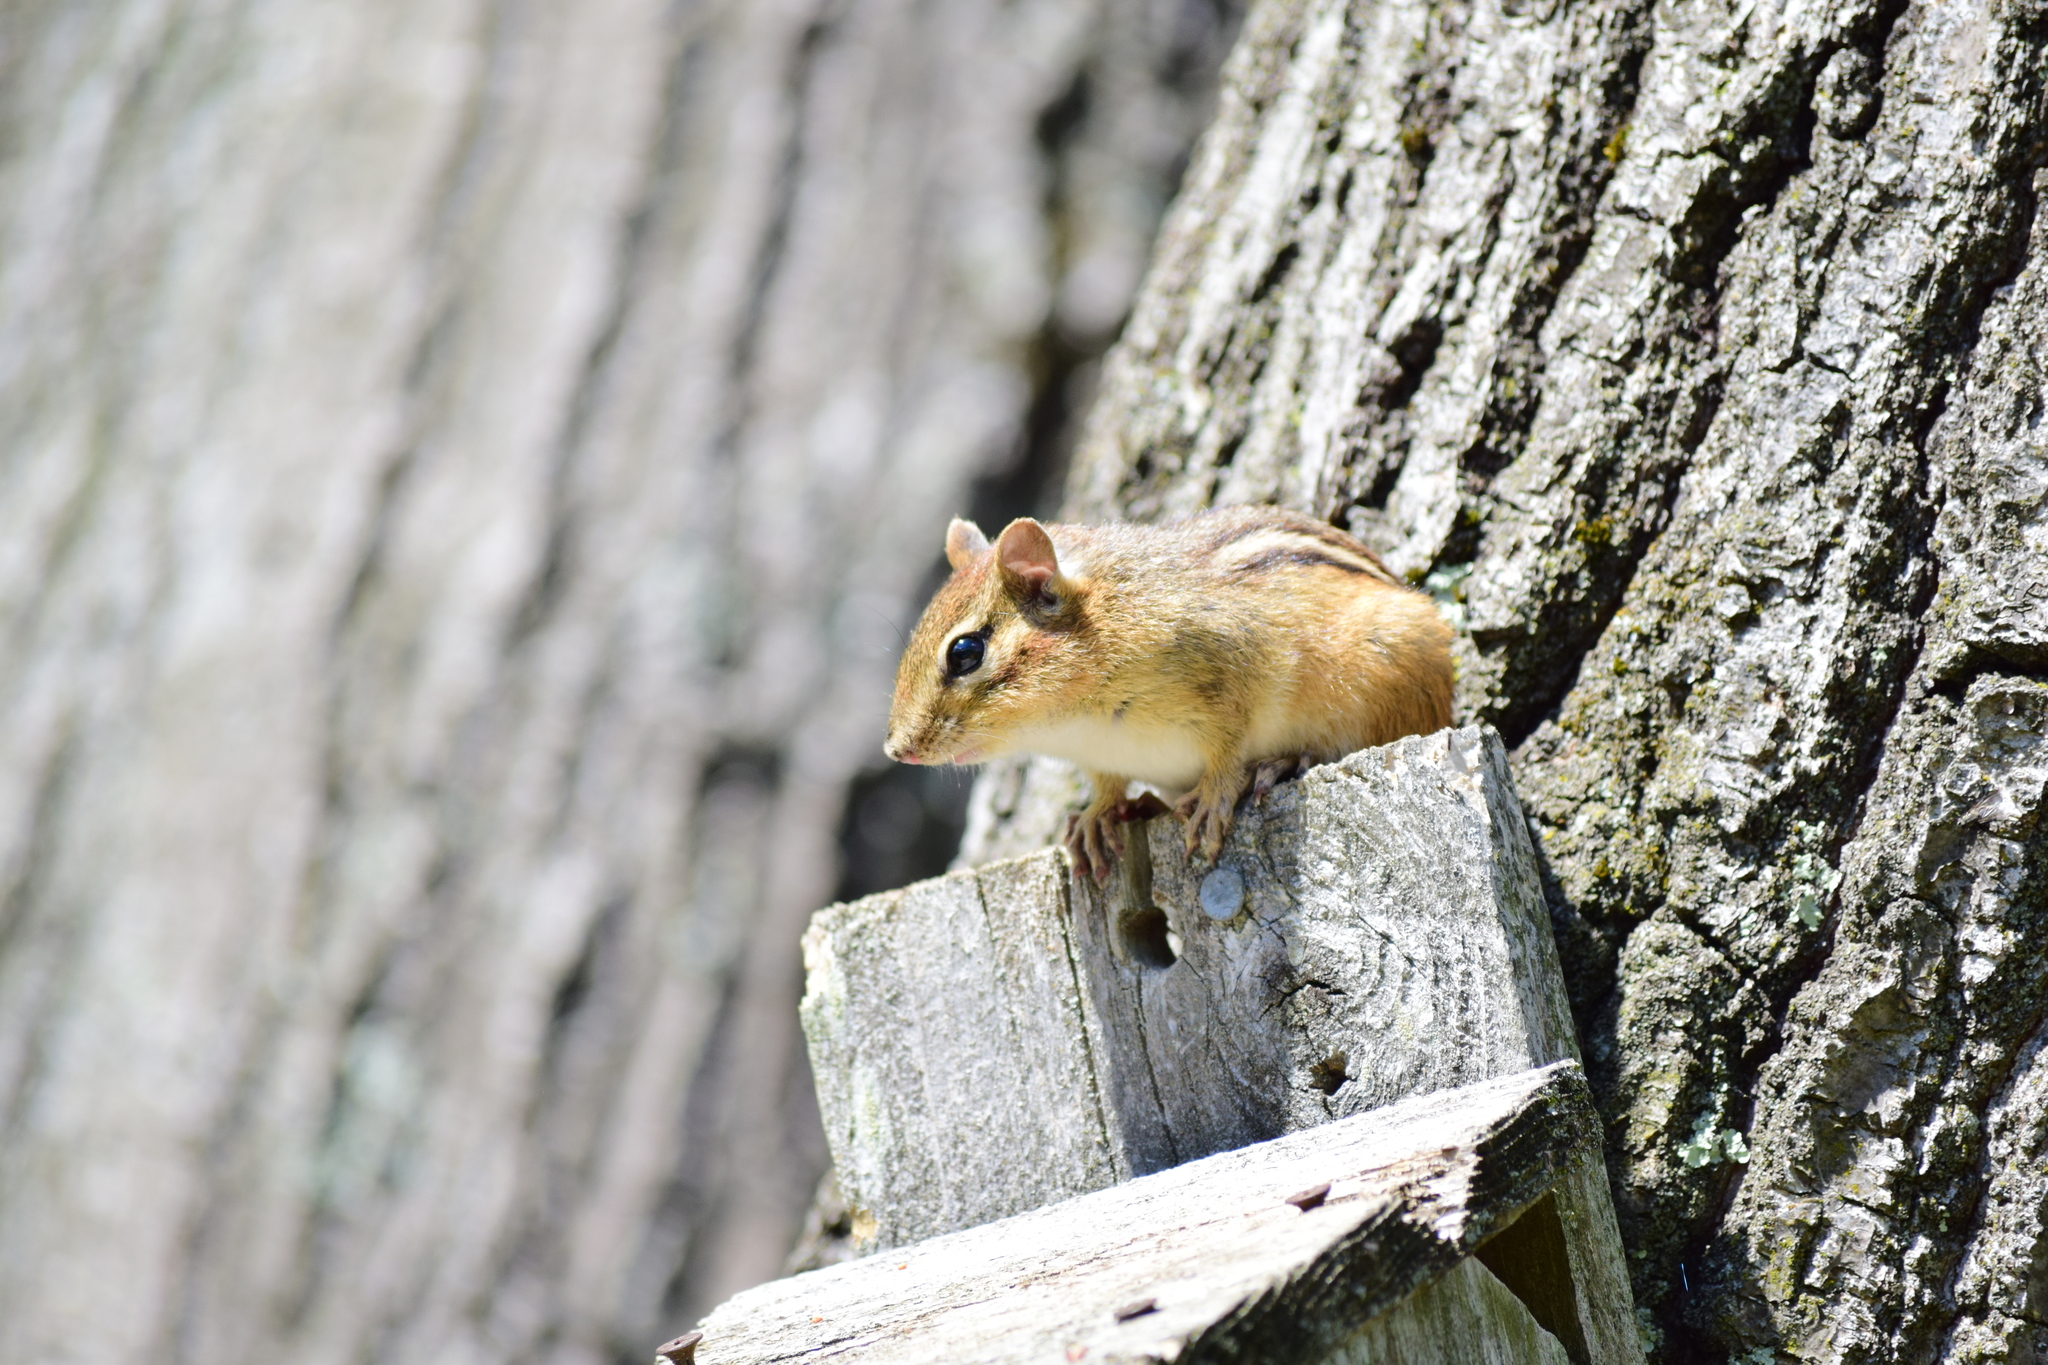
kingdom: Animalia
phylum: Chordata
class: Mammalia
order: Rodentia
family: Sciuridae
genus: Tamias
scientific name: Tamias striatus
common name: Eastern chipmunk
